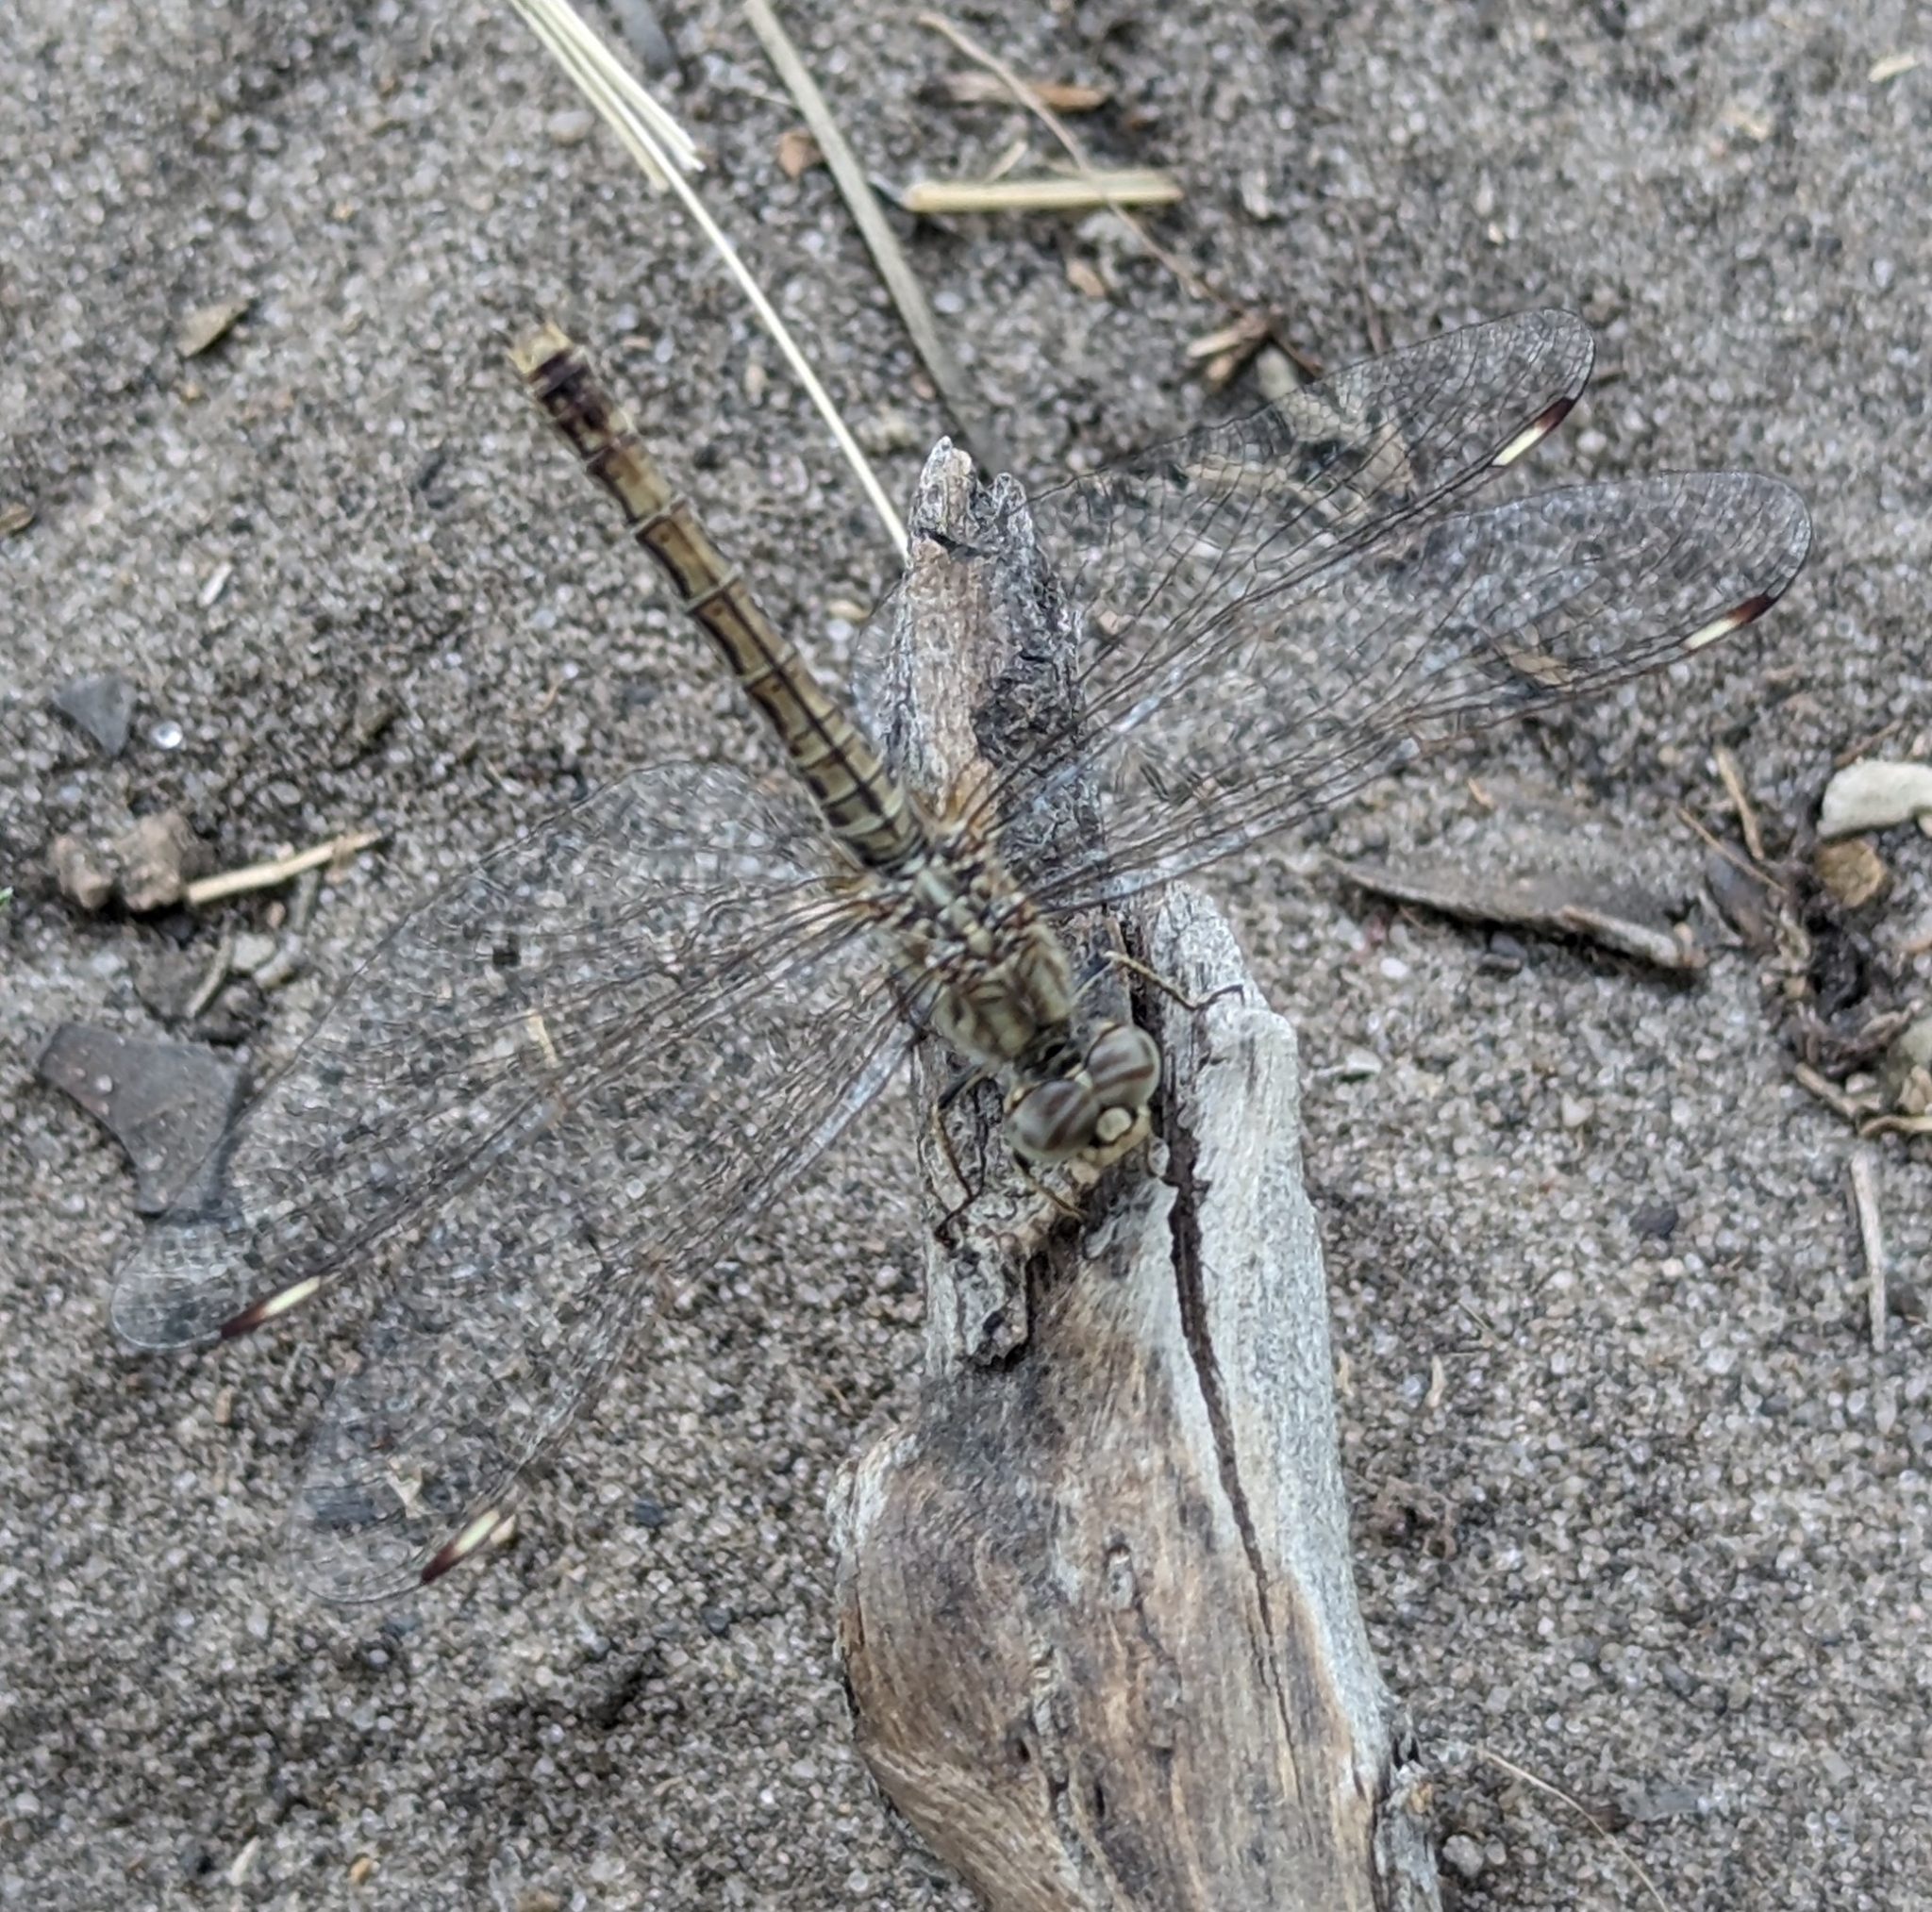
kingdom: Animalia
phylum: Arthropoda
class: Insecta
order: Odonata
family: Libellulidae
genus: Brachythemis
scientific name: Brachythemis leucosticta
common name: Banded groundling
